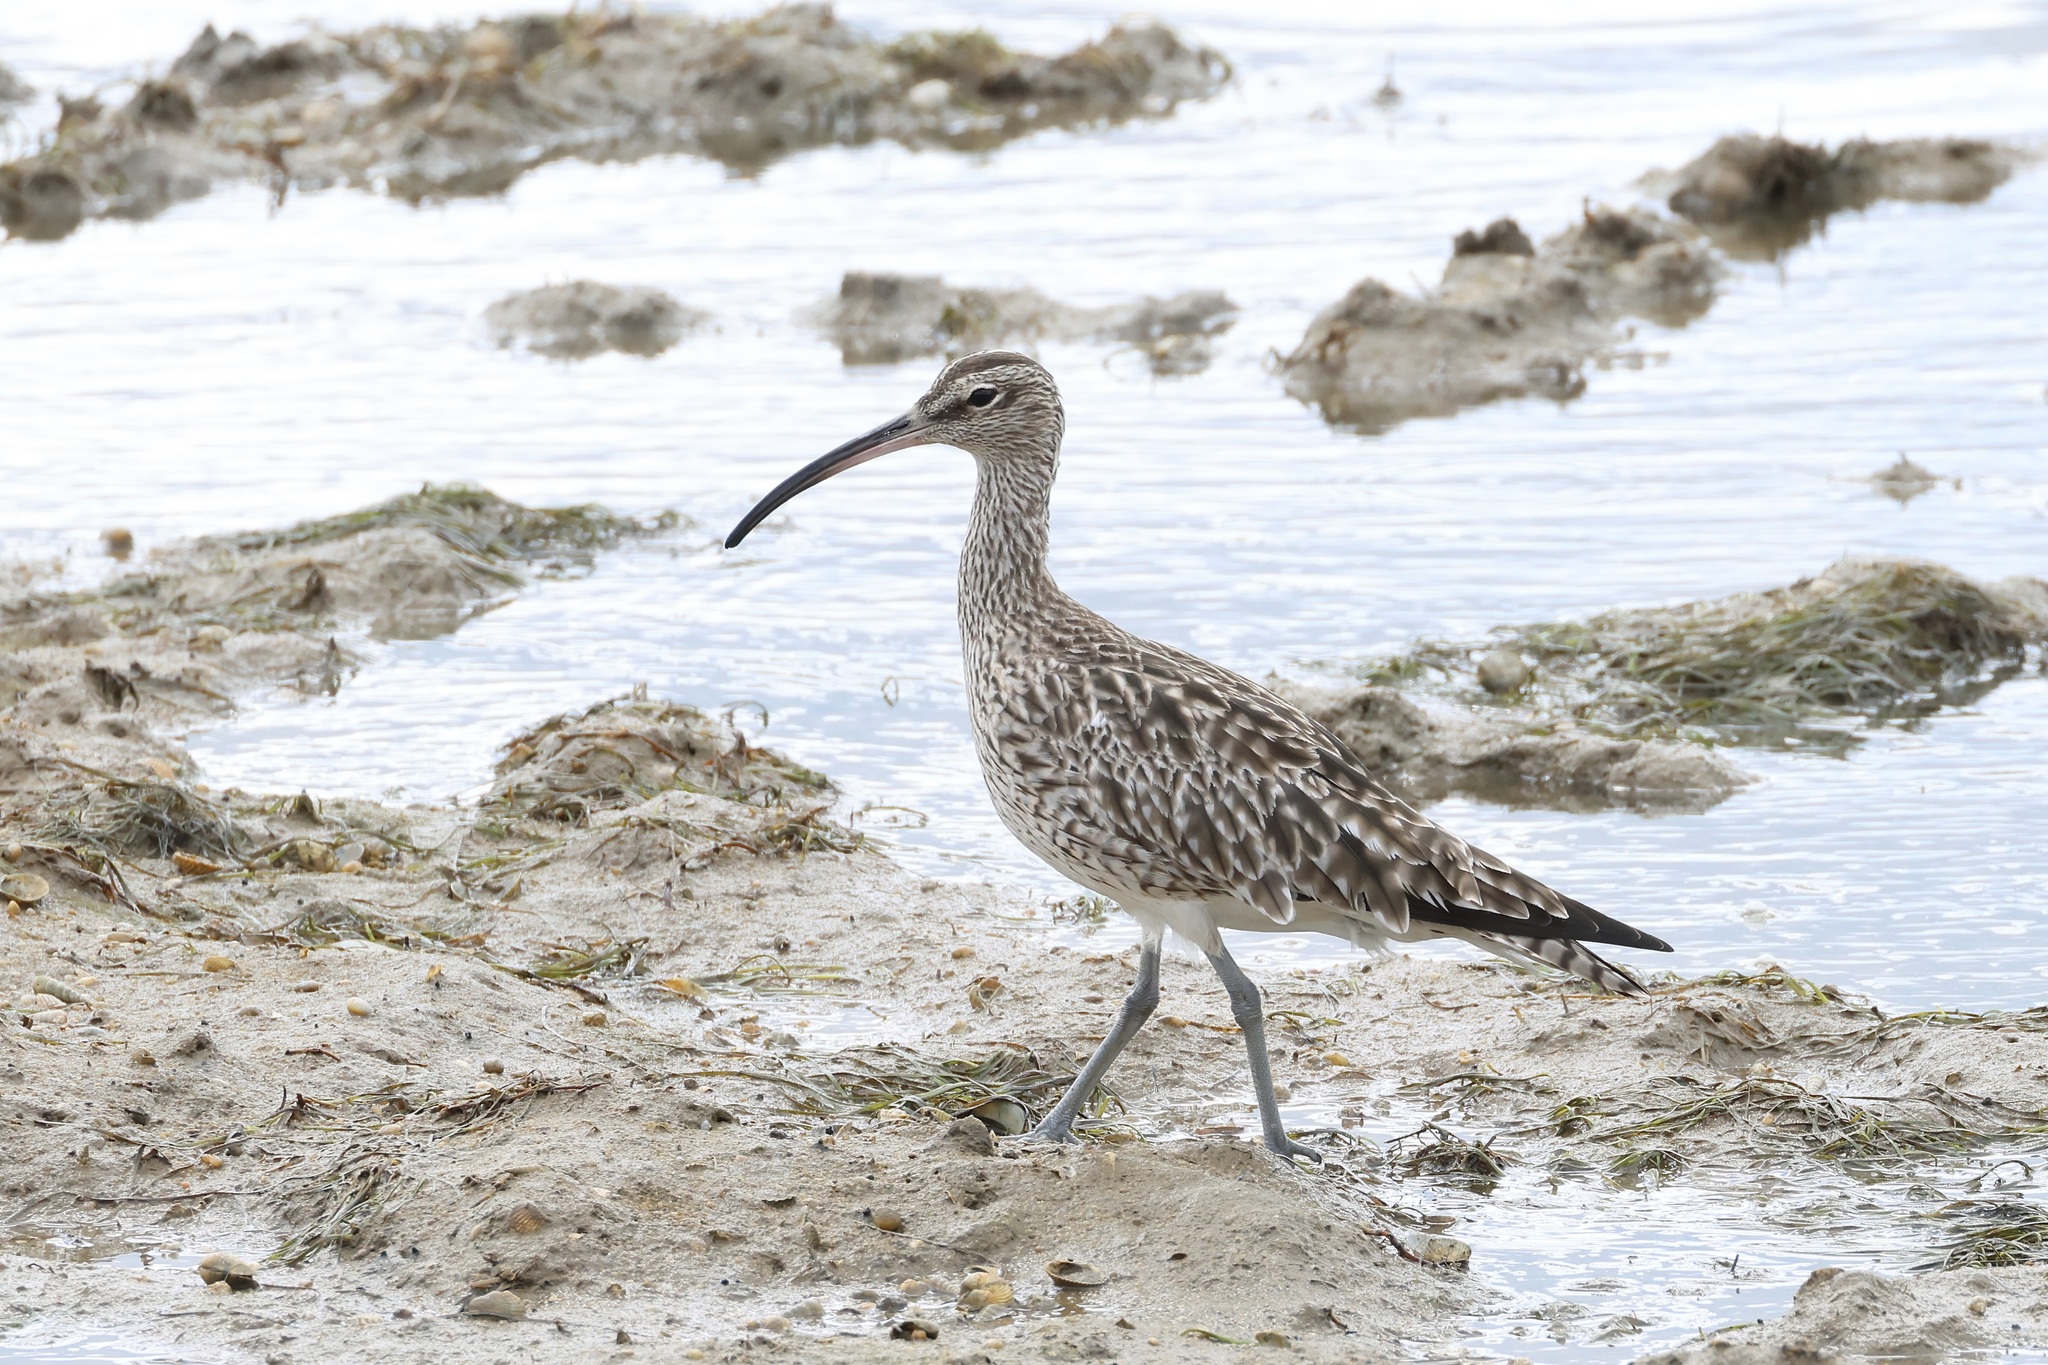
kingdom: Animalia
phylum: Chordata
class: Aves
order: Charadriiformes
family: Scolopacidae
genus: Numenius
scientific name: Numenius phaeopus
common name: Whimbrel
